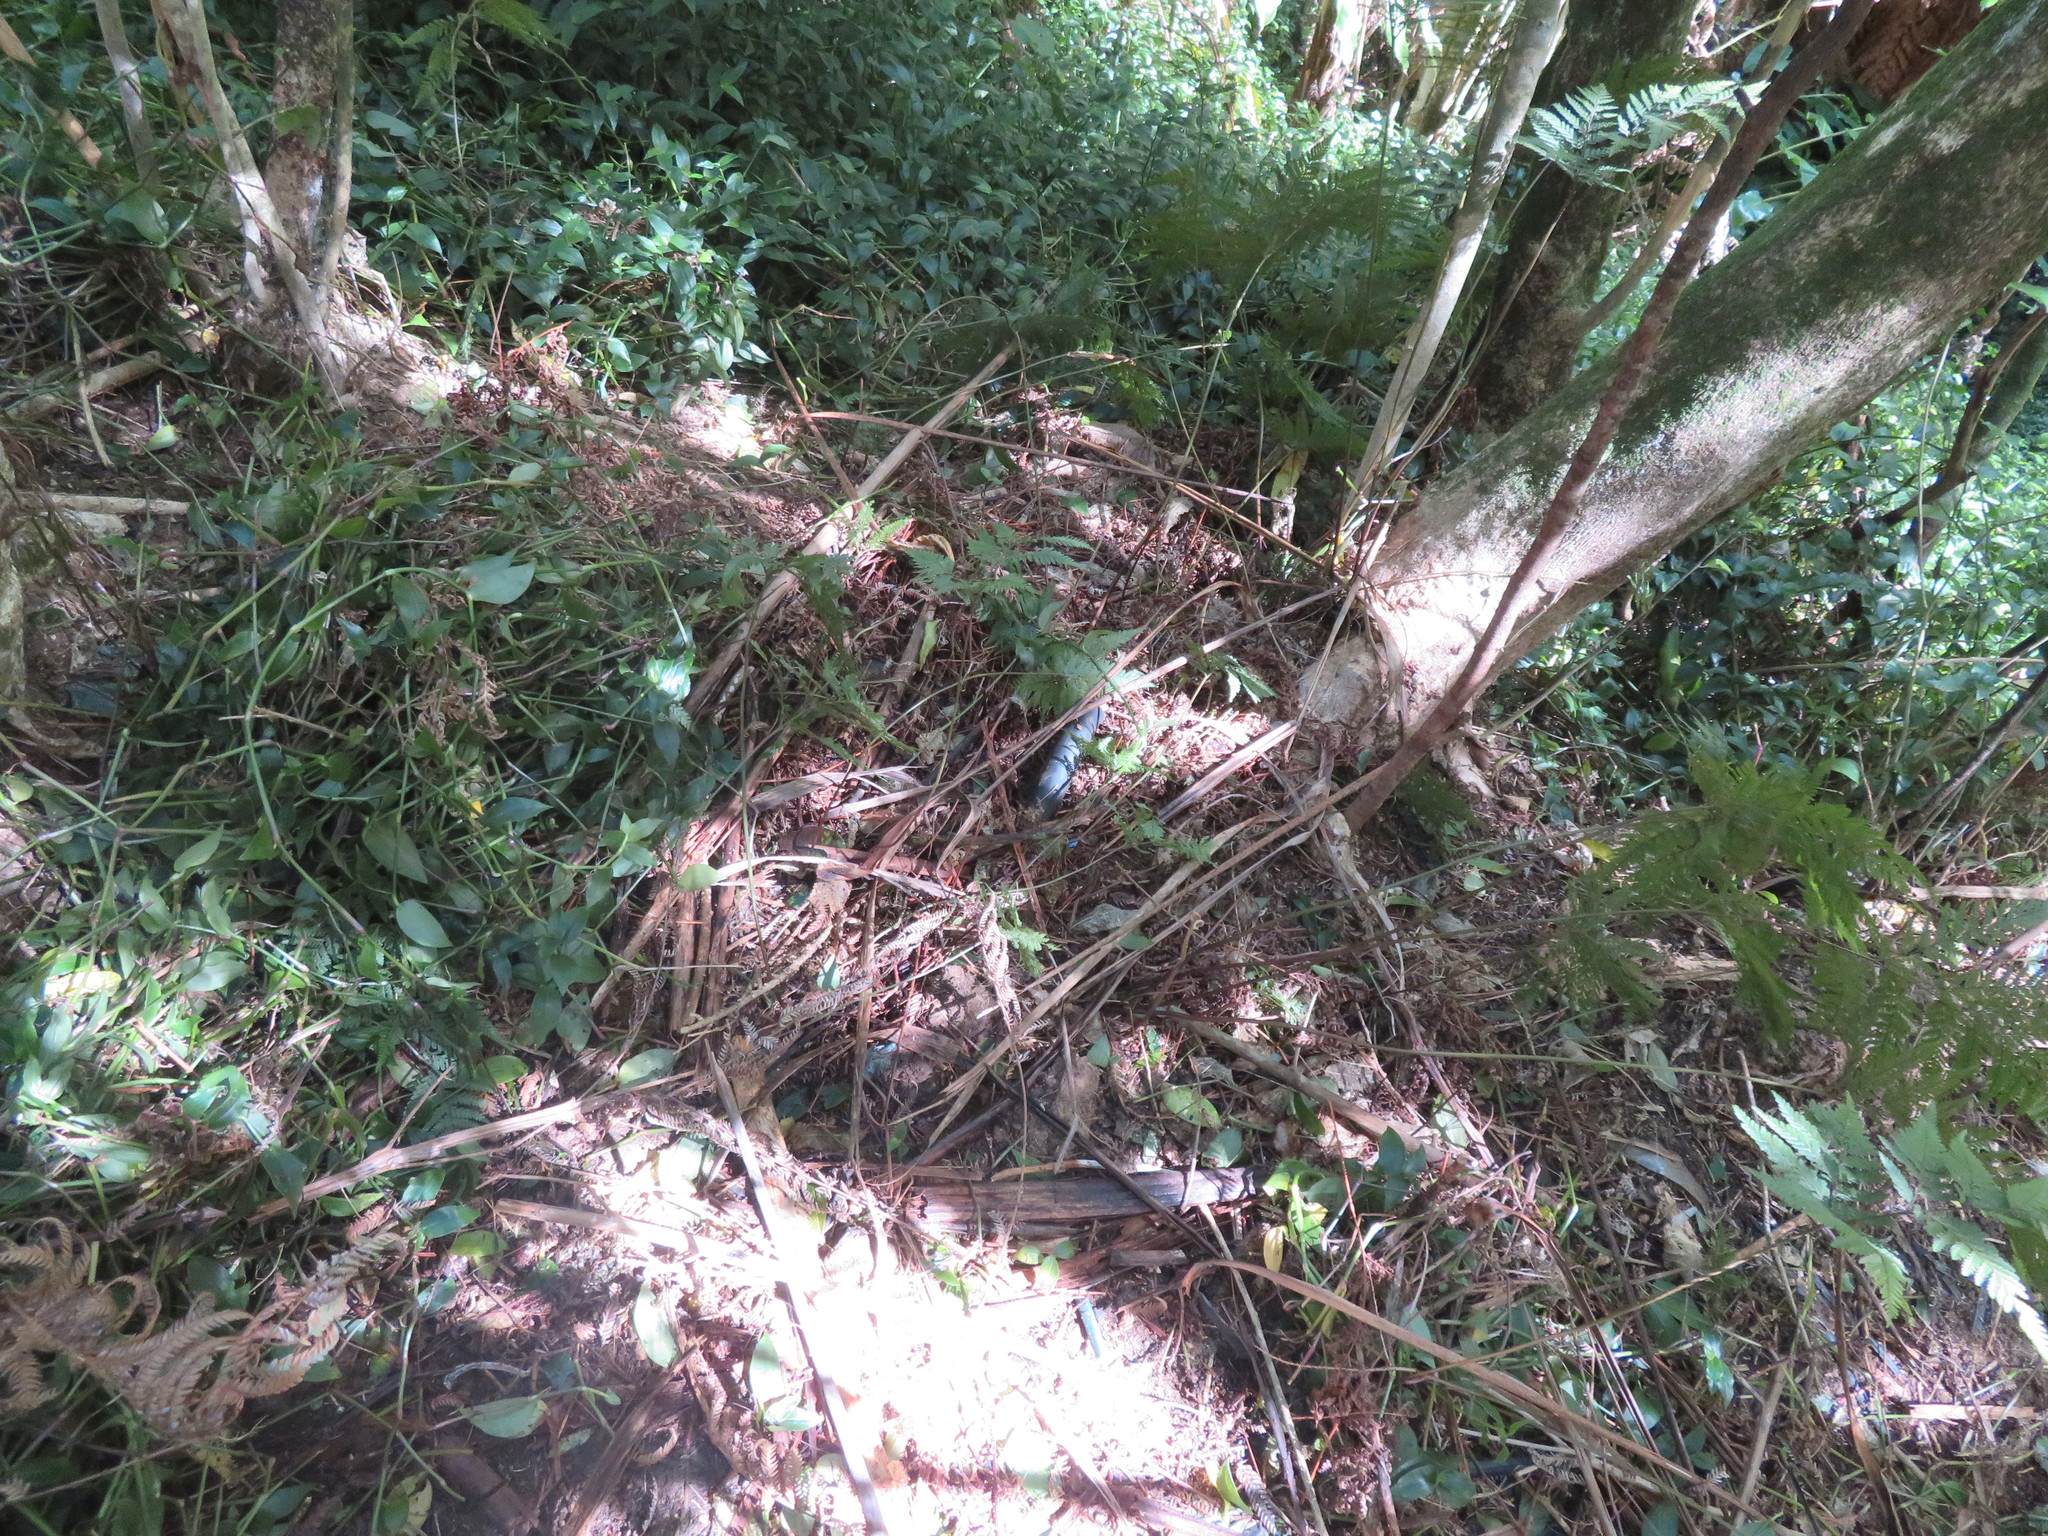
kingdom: Plantae
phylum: Tracheophyta
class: Liliopsida
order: Commelinales
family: Commelinaceae
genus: Tradescantia
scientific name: Tradescantia fluminensis
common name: Wandering-jew
